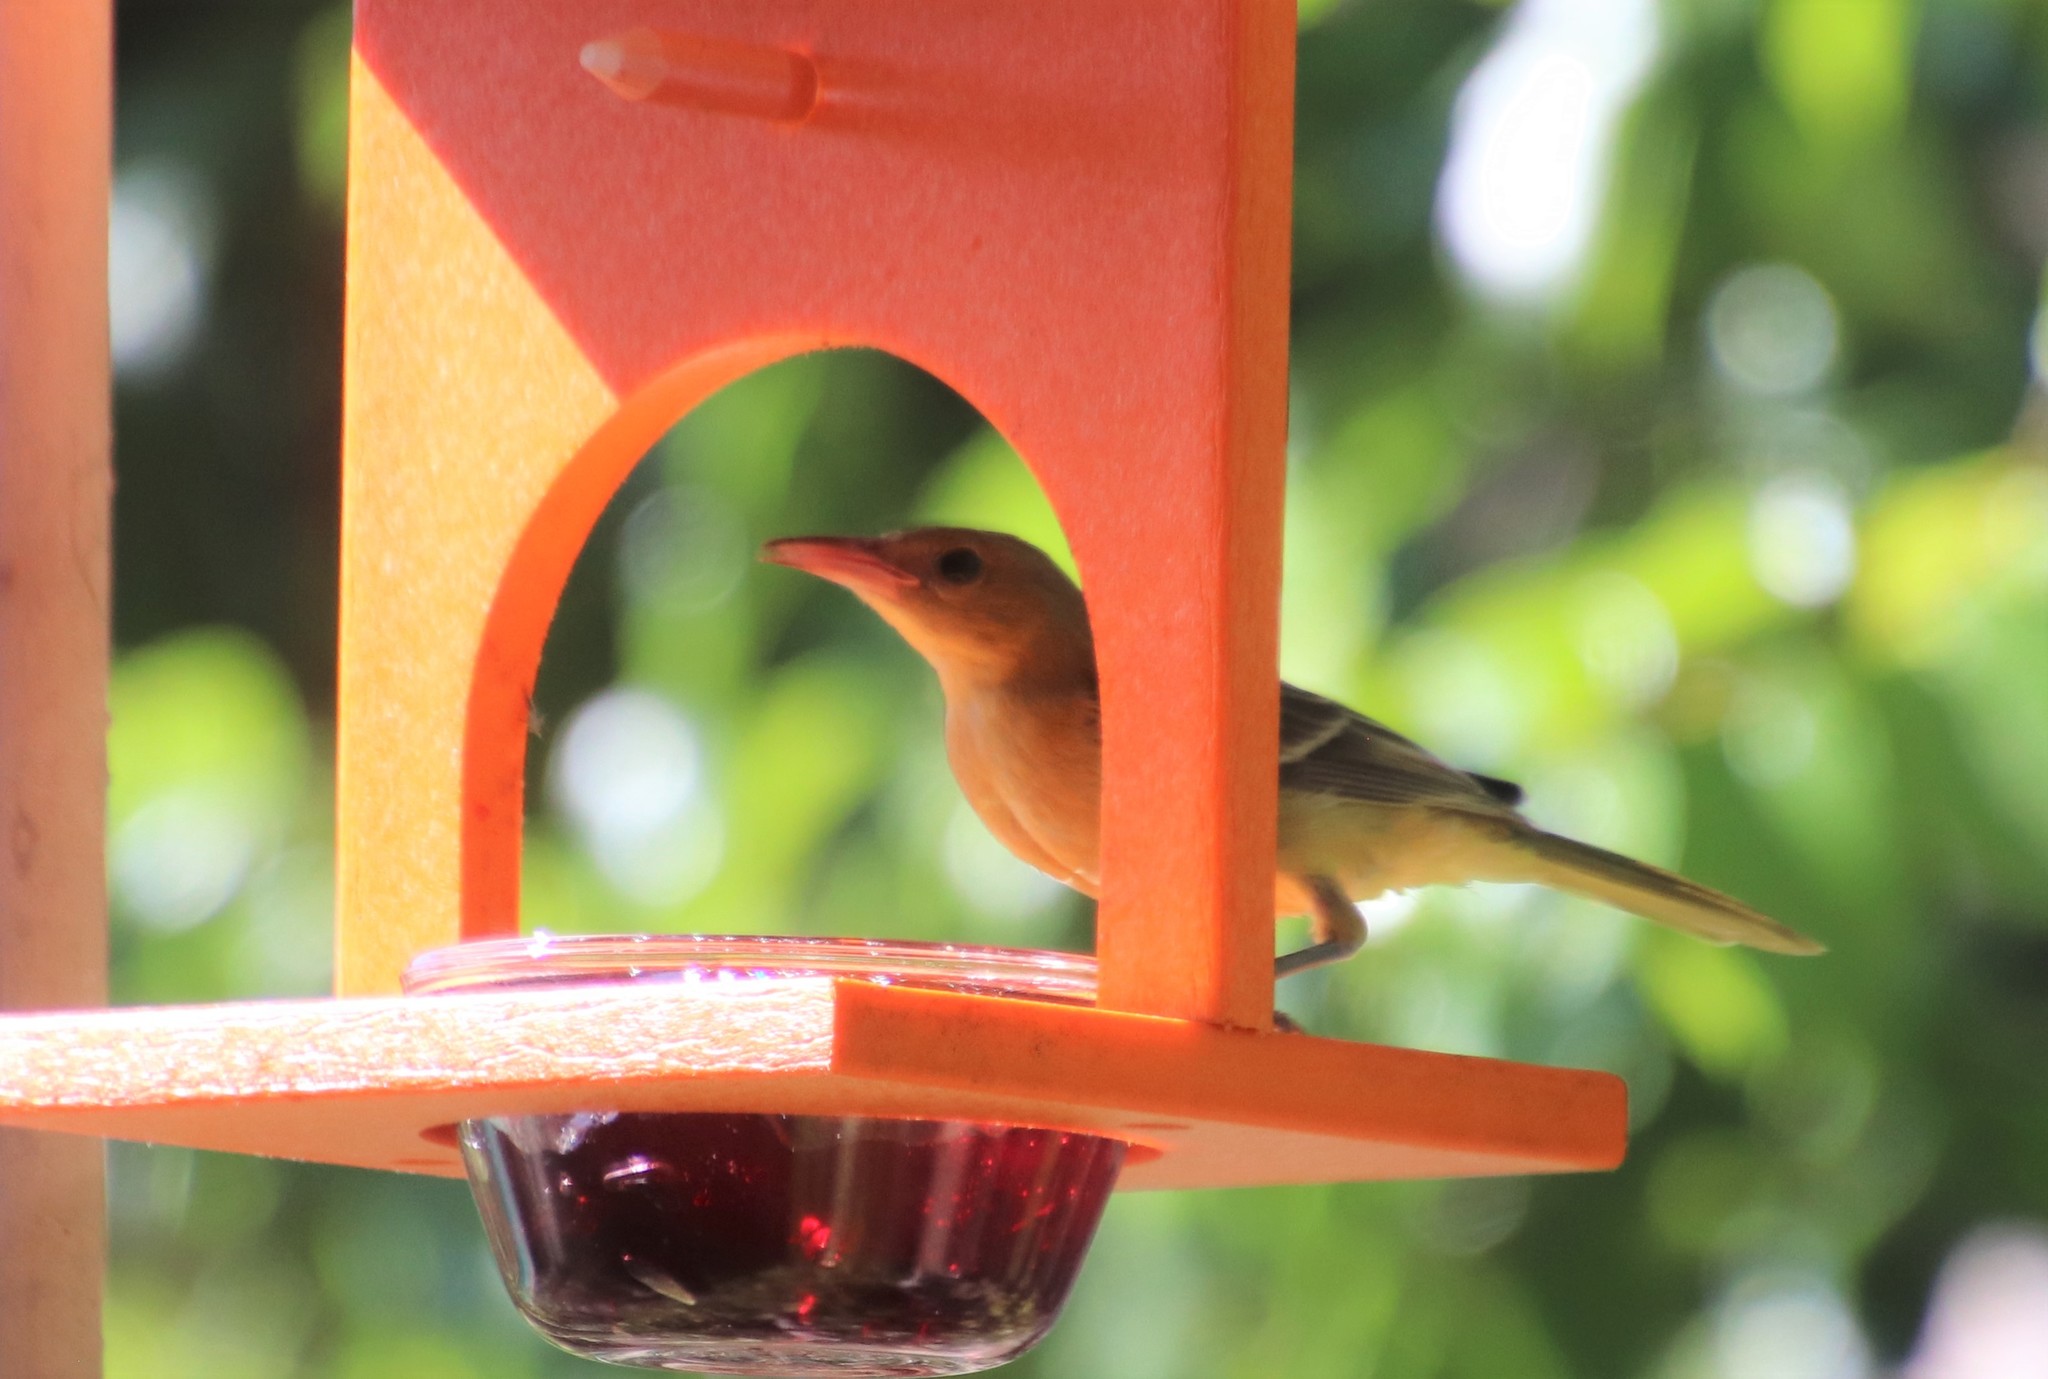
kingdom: Animalia
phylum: Chordata
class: Aves
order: Passeriformes
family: Icteridae
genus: Icterus
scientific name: Icterus cucullatus
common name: Hooded oriole
